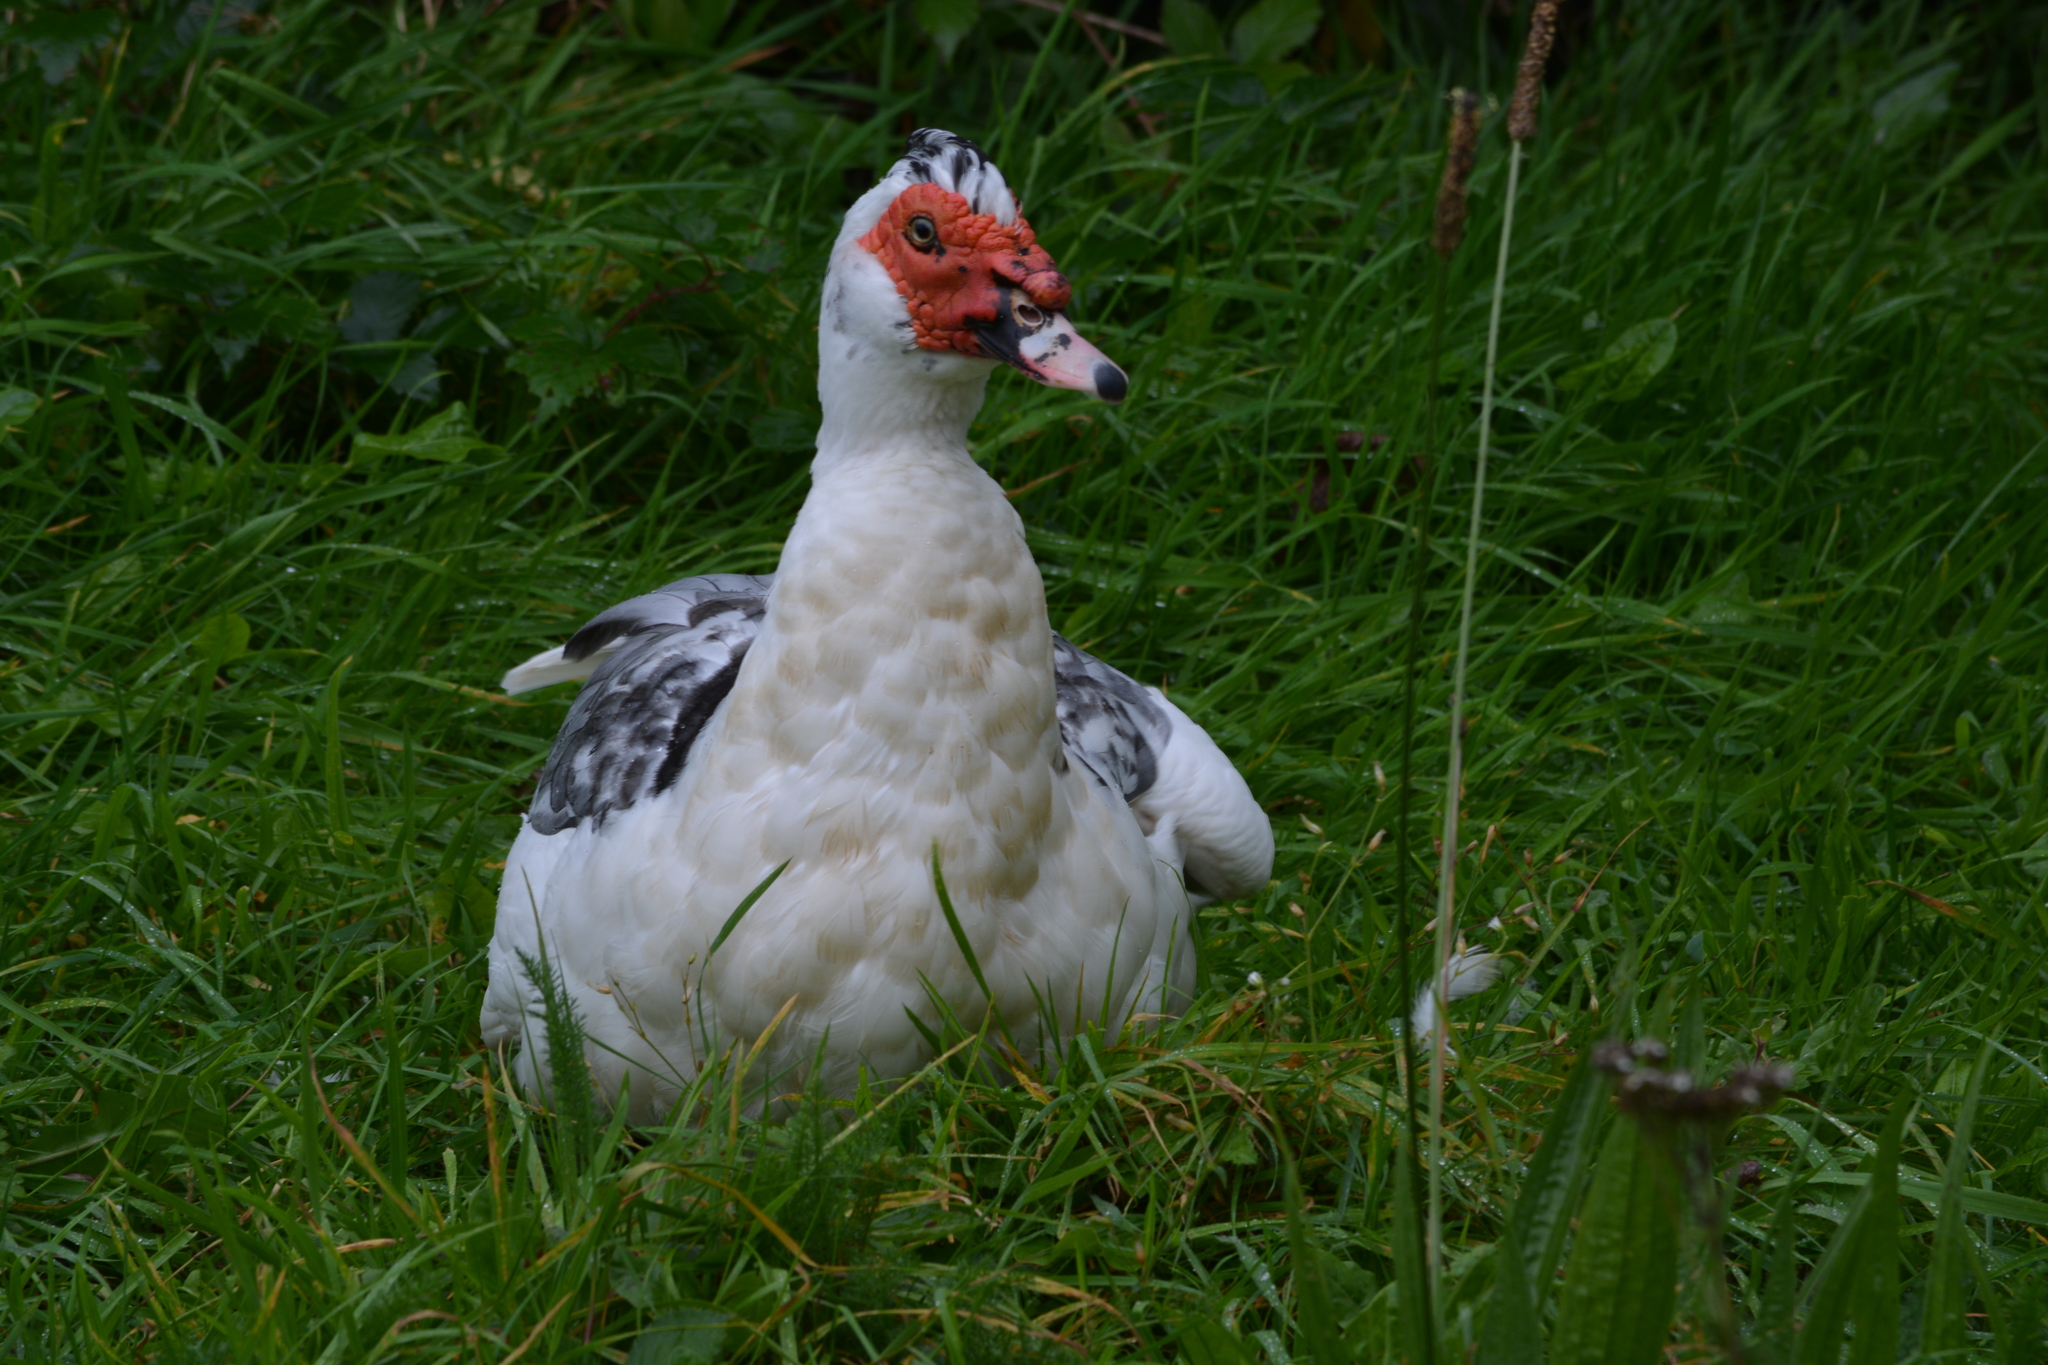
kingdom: Animalia
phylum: Chordata
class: Aves
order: Anseriformes
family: Anatidae
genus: Cairina
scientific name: Cairina moschata
